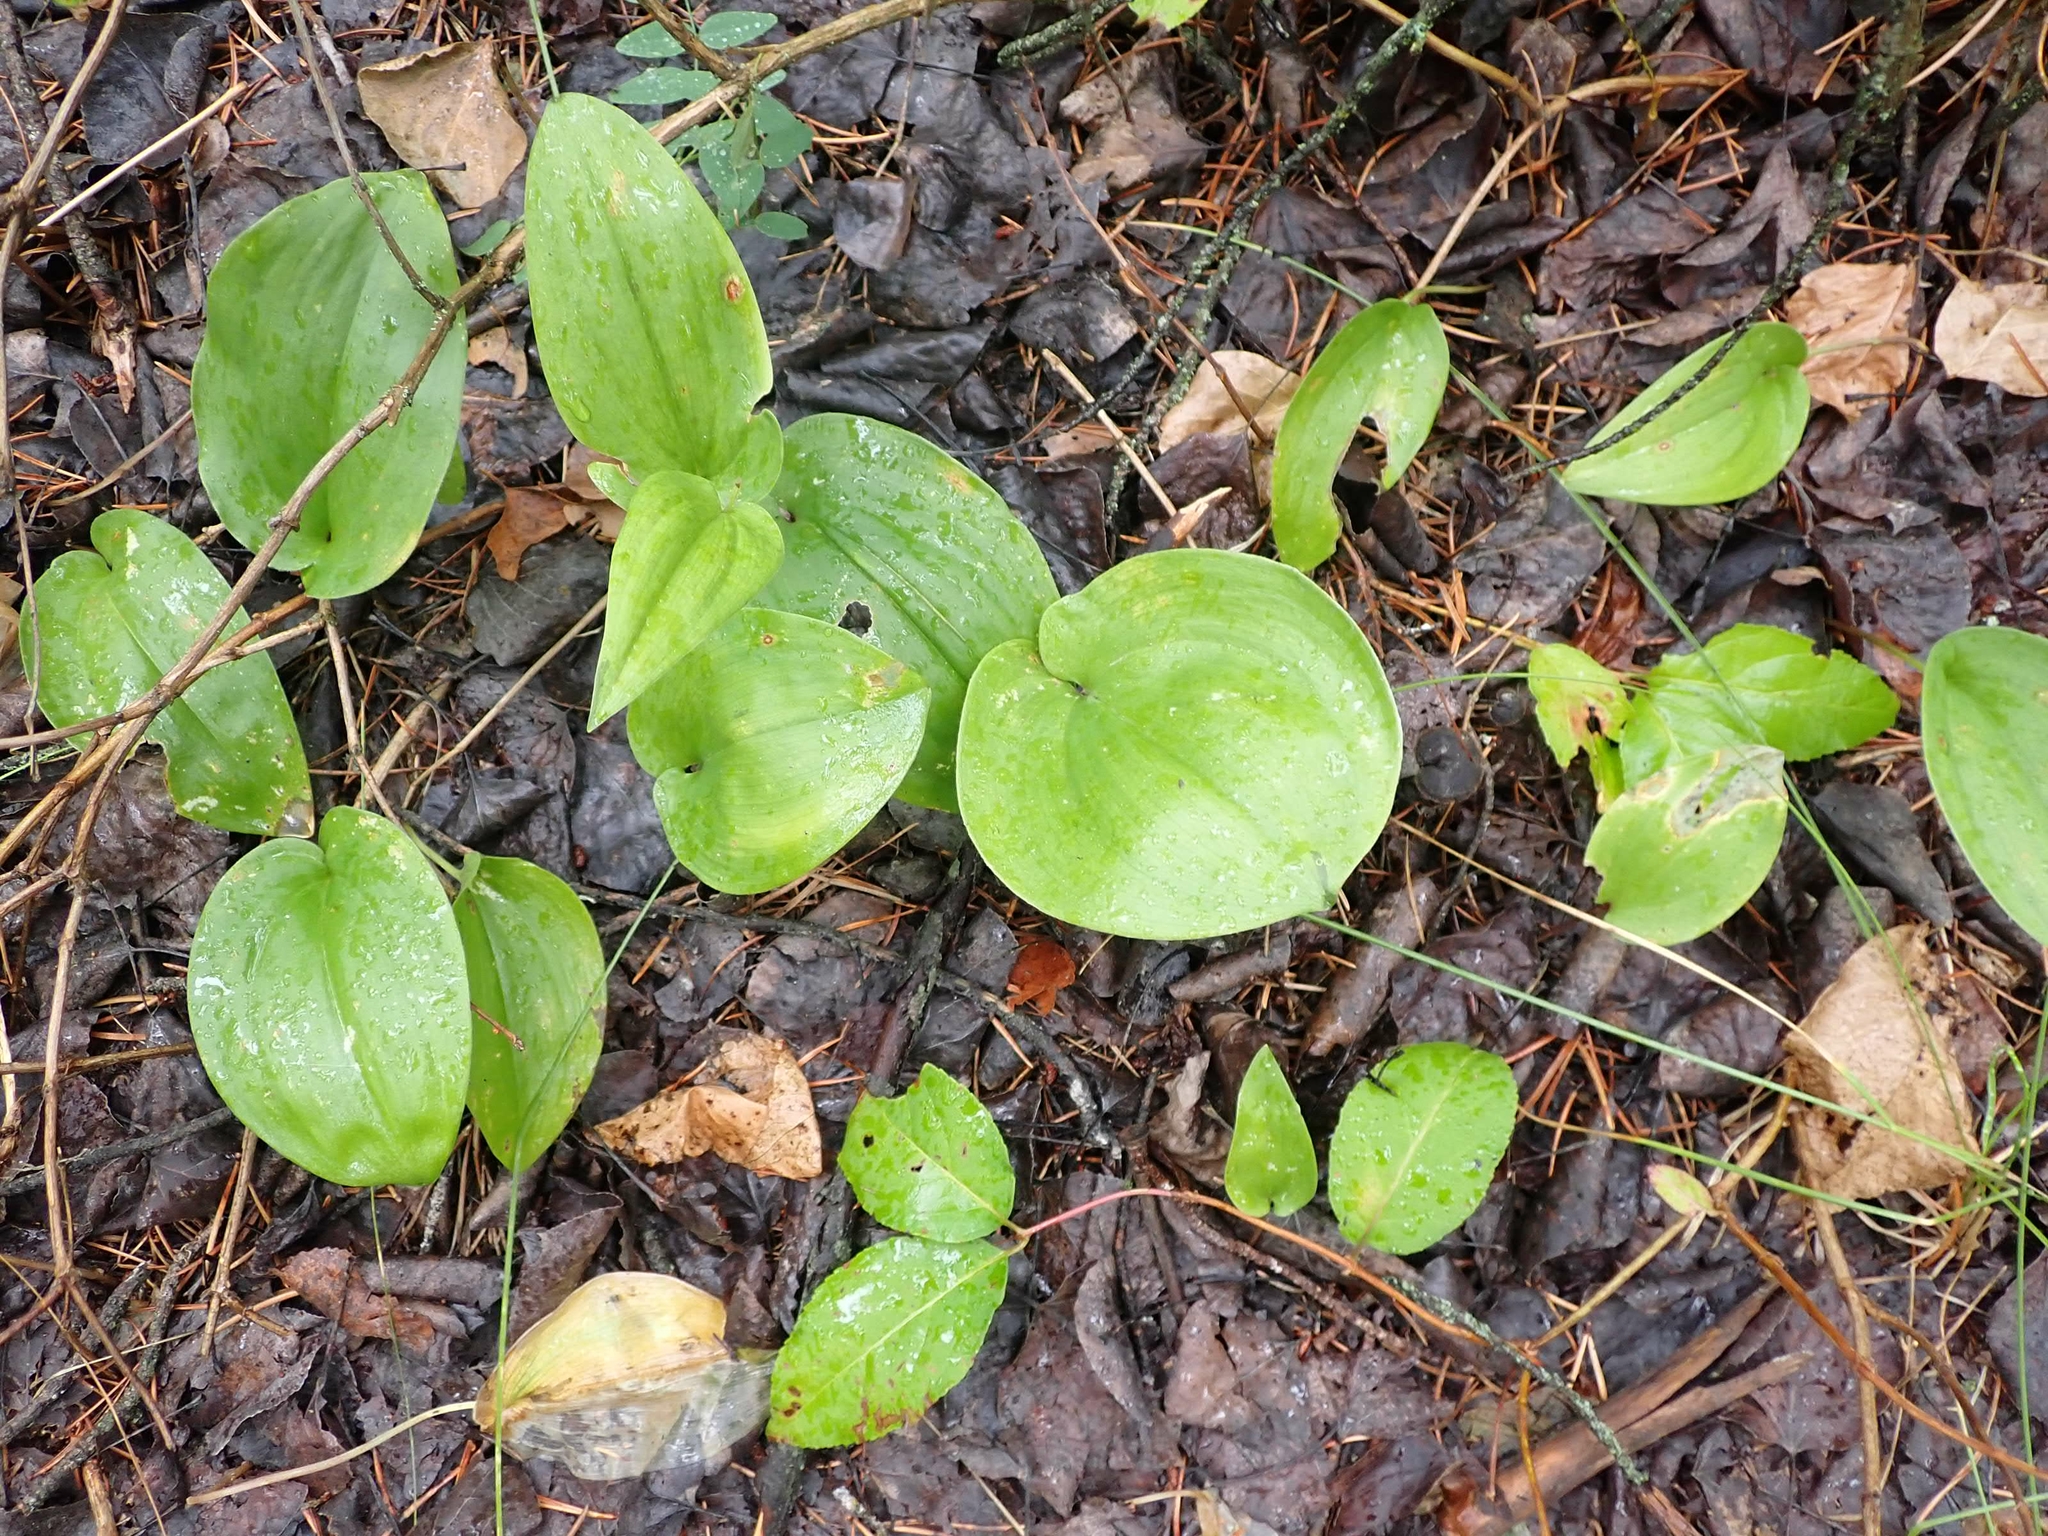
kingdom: Plantae
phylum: Tracheophyta
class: Liliopsida
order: Asparagales
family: Asparagaceae
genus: Maianthemum
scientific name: Maianthemum canadense
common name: False lily-of-the-valley
